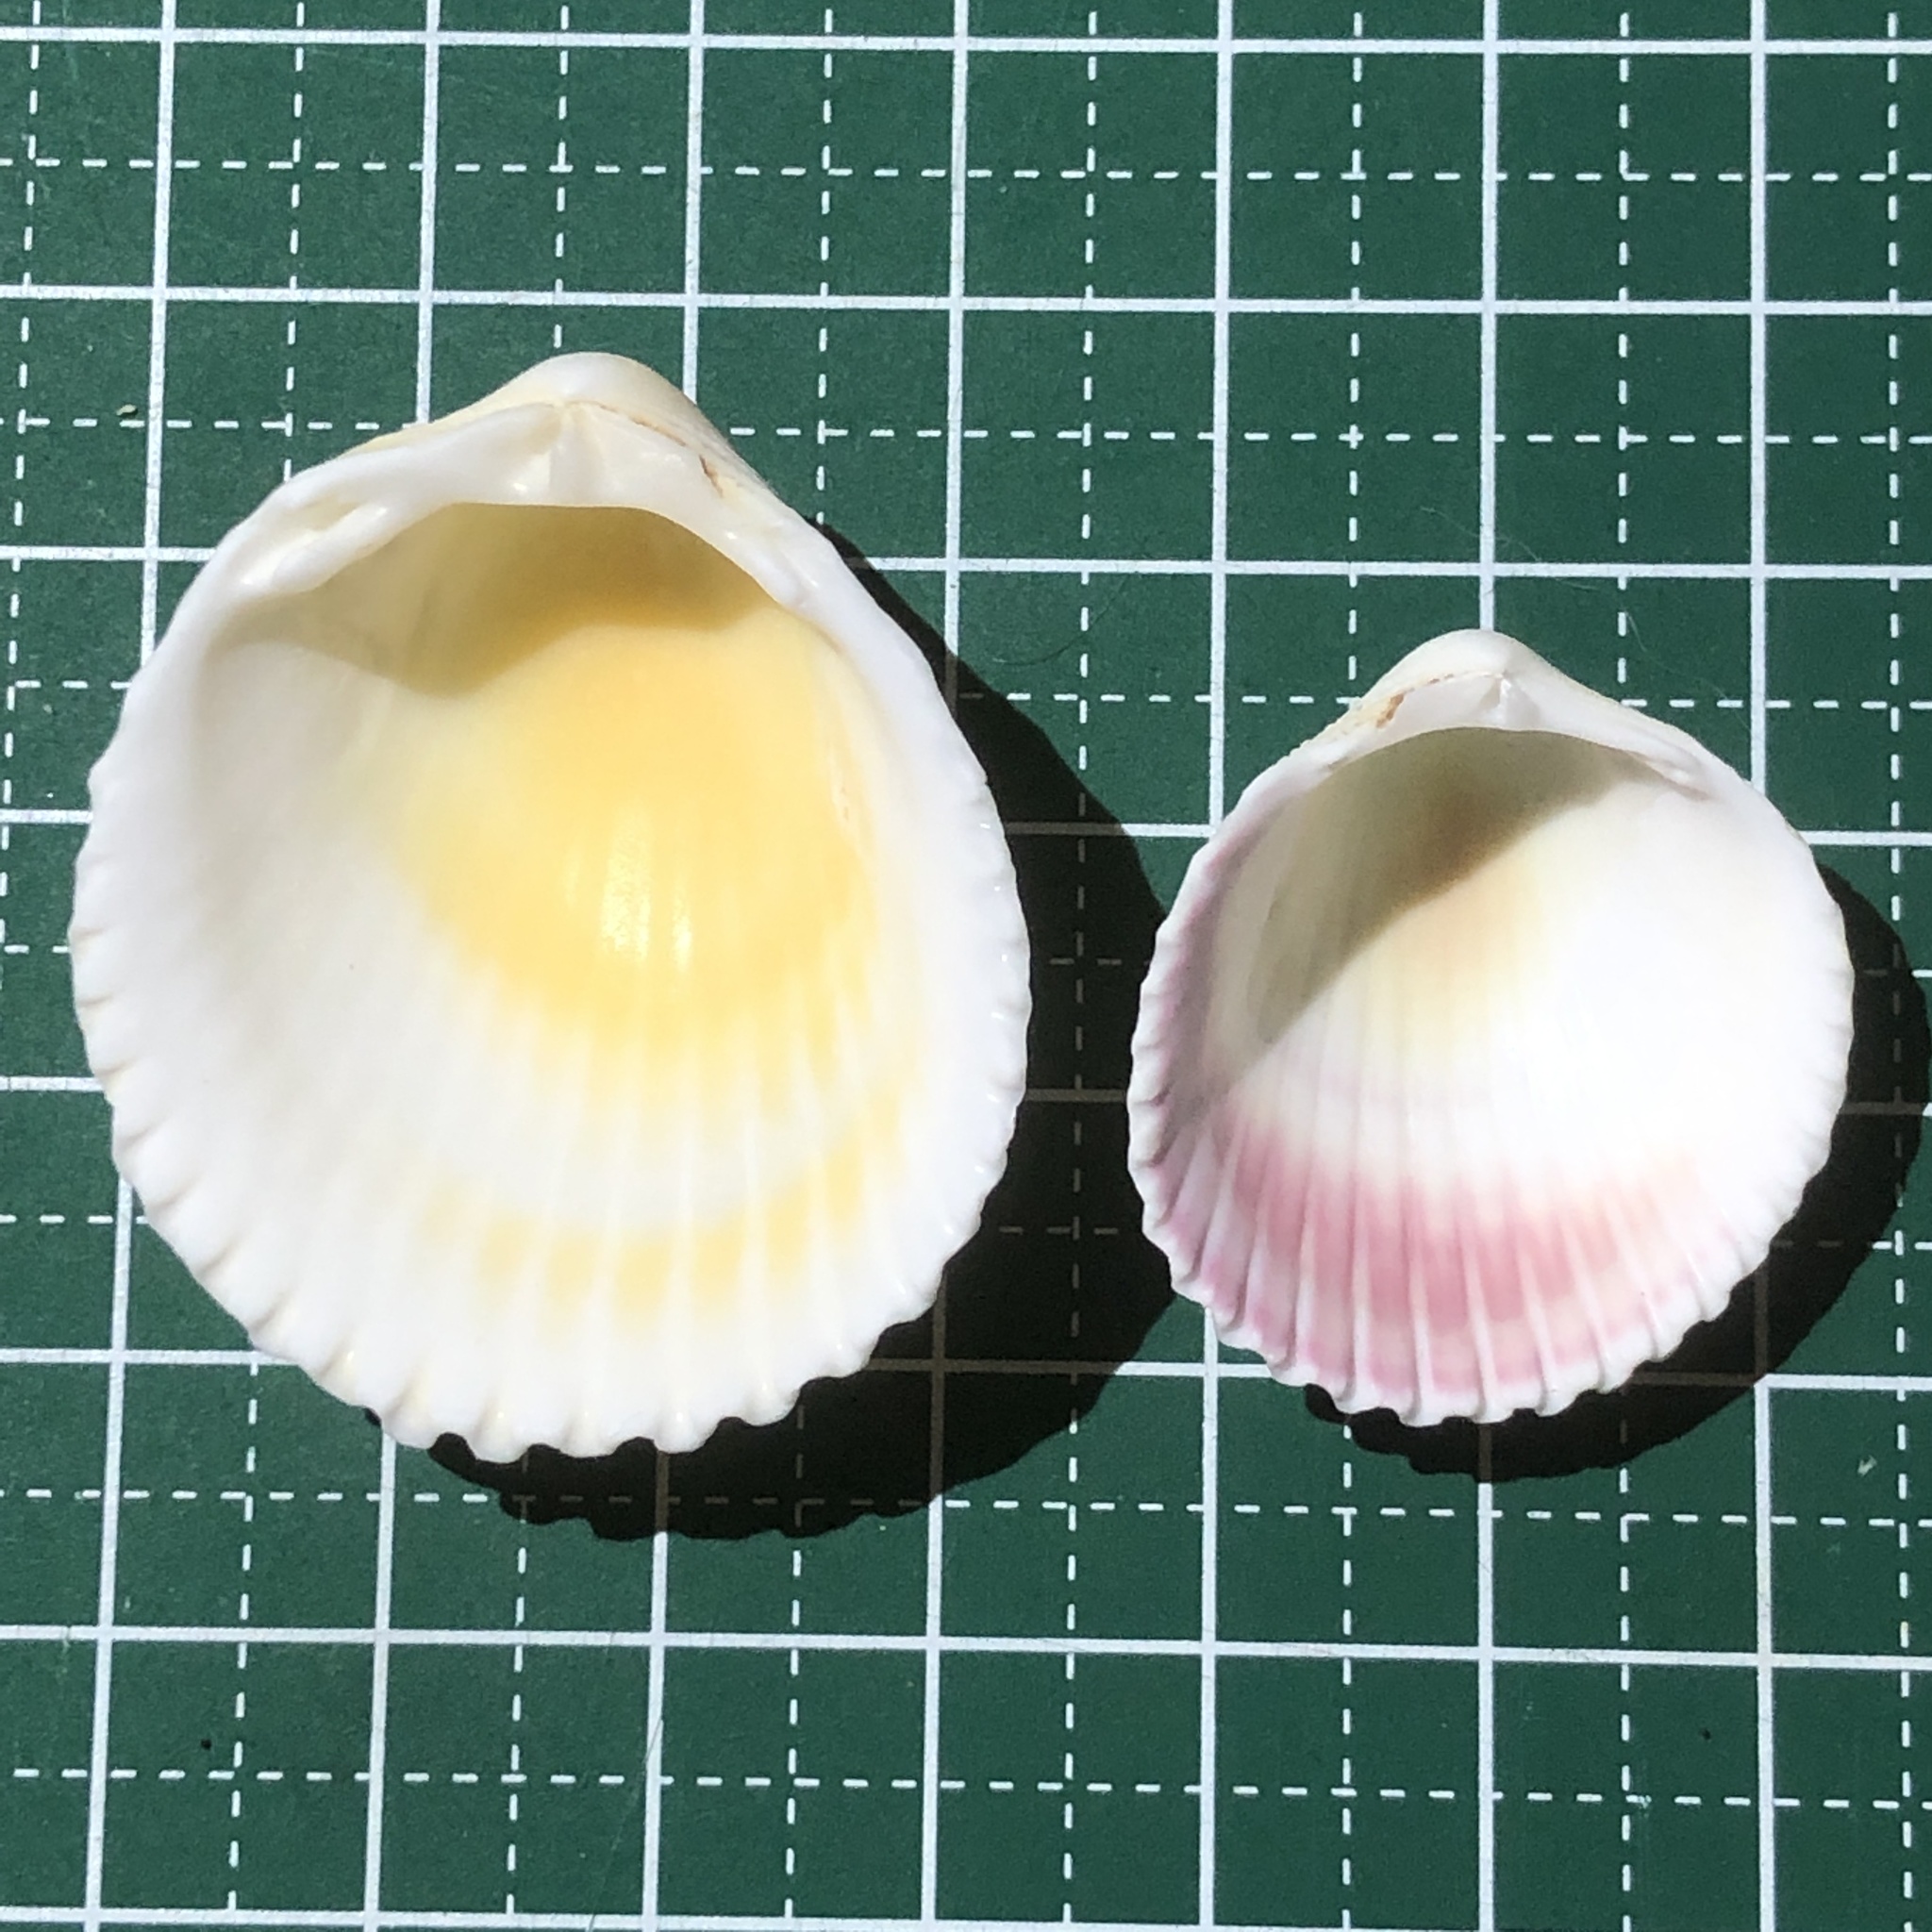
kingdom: Animalia
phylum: Mollusca
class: Bivalvia
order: Cardiida
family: Cardiidae
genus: Vasticardium
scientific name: Vasticardium flavum
